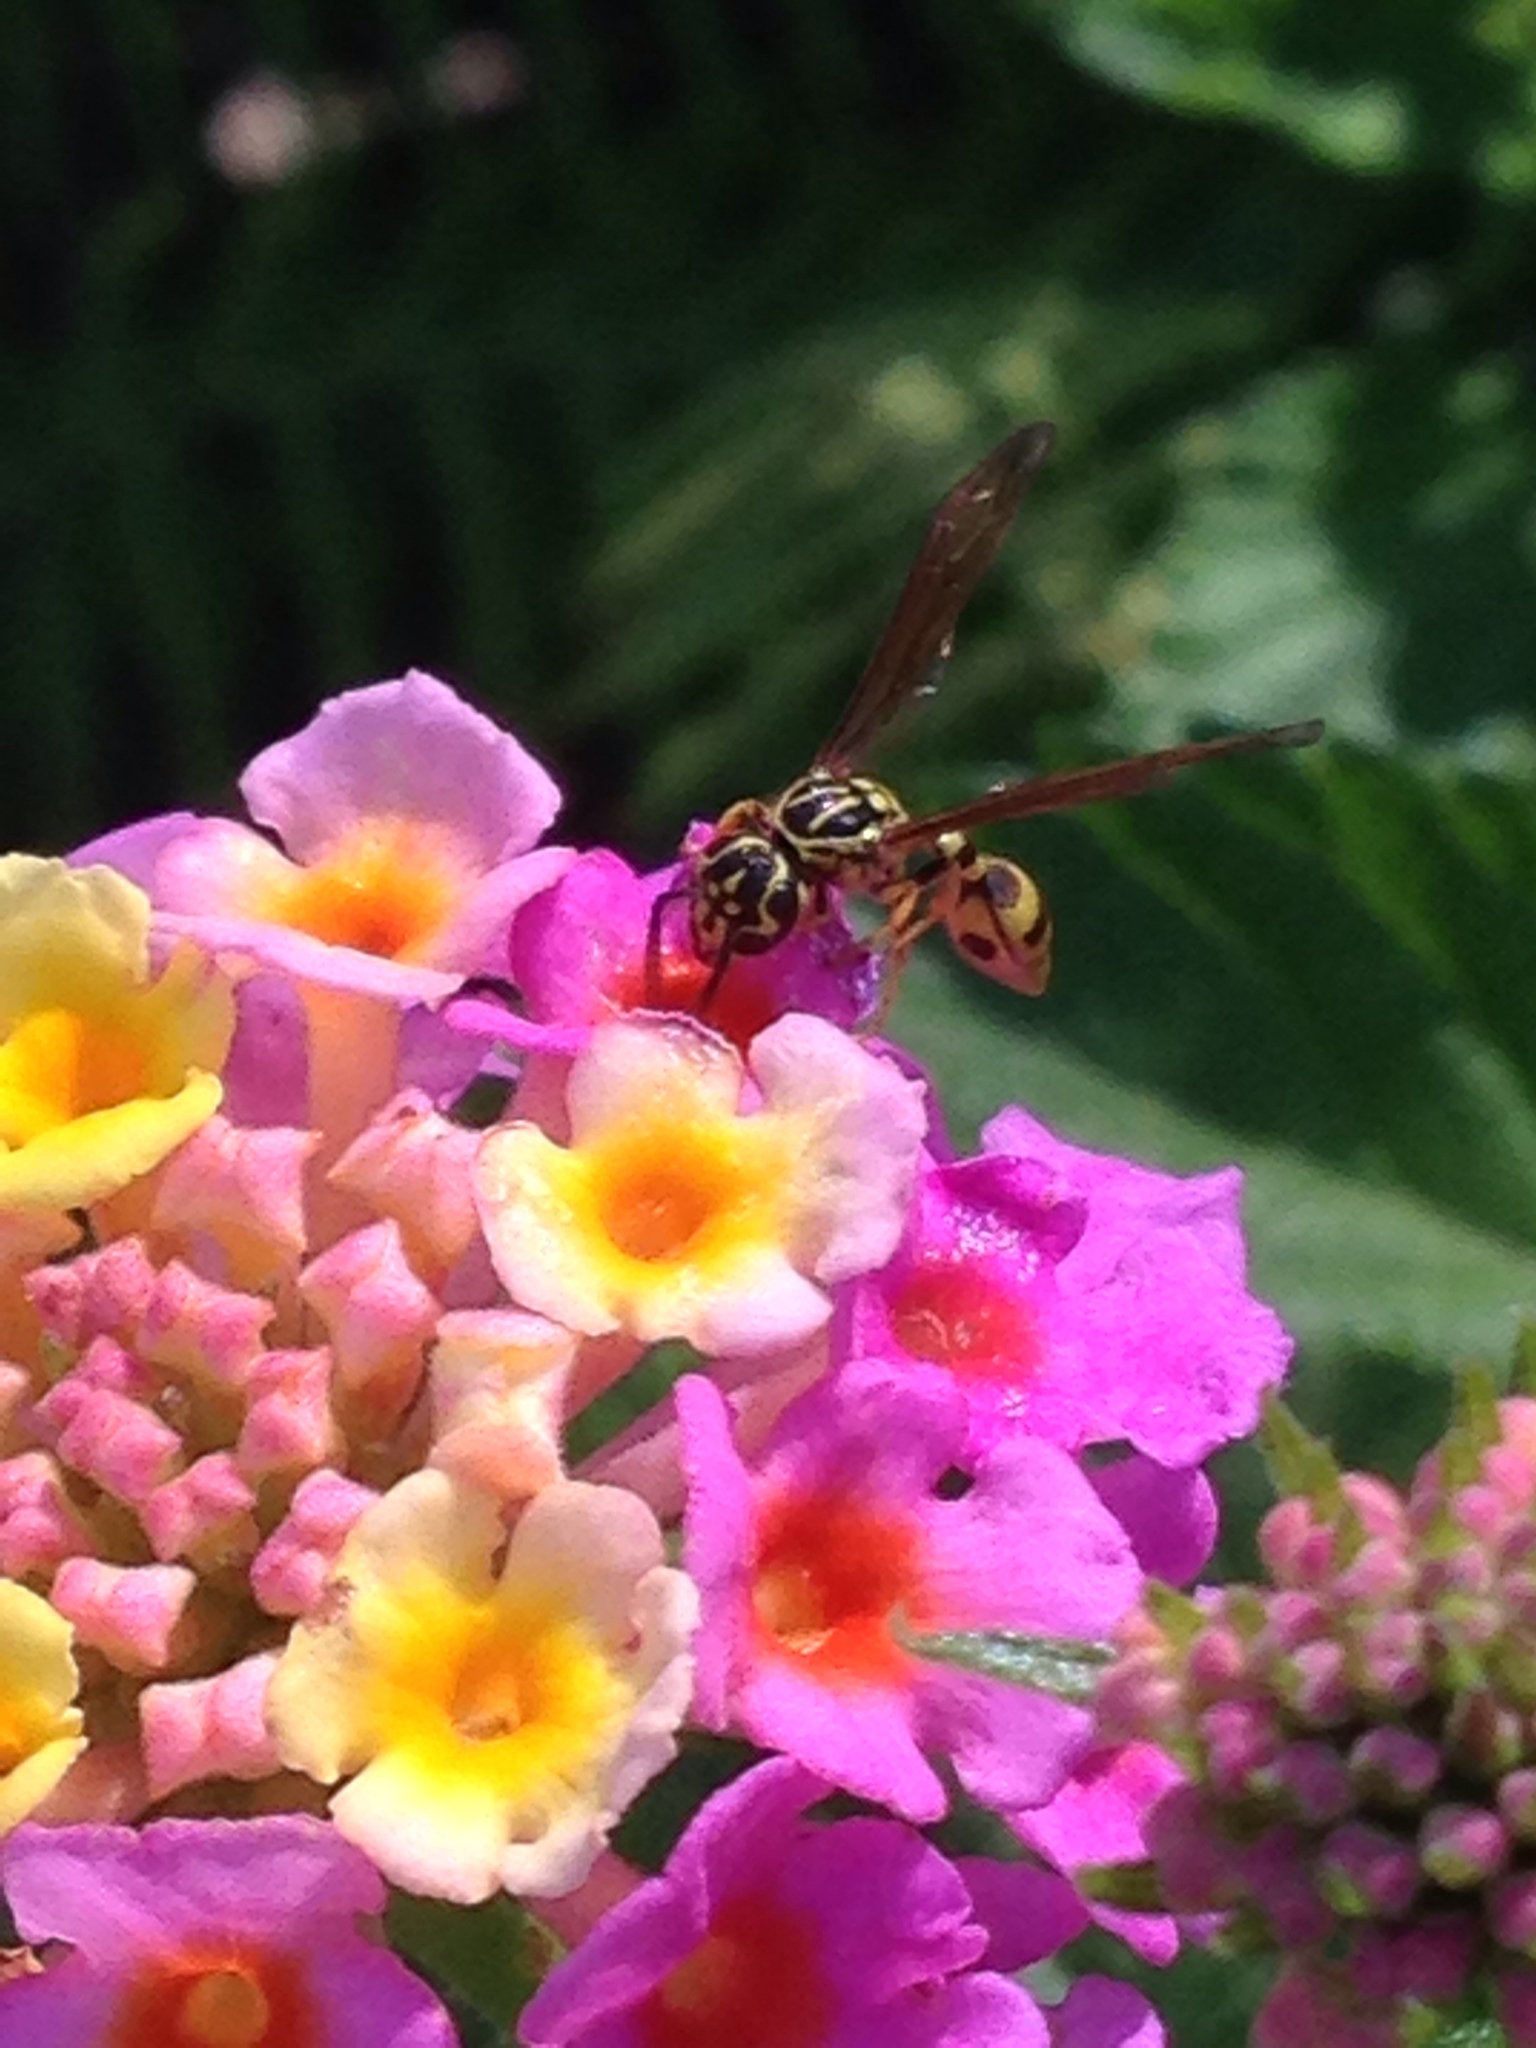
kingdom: Animalia
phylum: Arthropoda
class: Insecta
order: Hymenoptera
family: Eumenidae
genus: Zethus
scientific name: Zethus histrionicus
